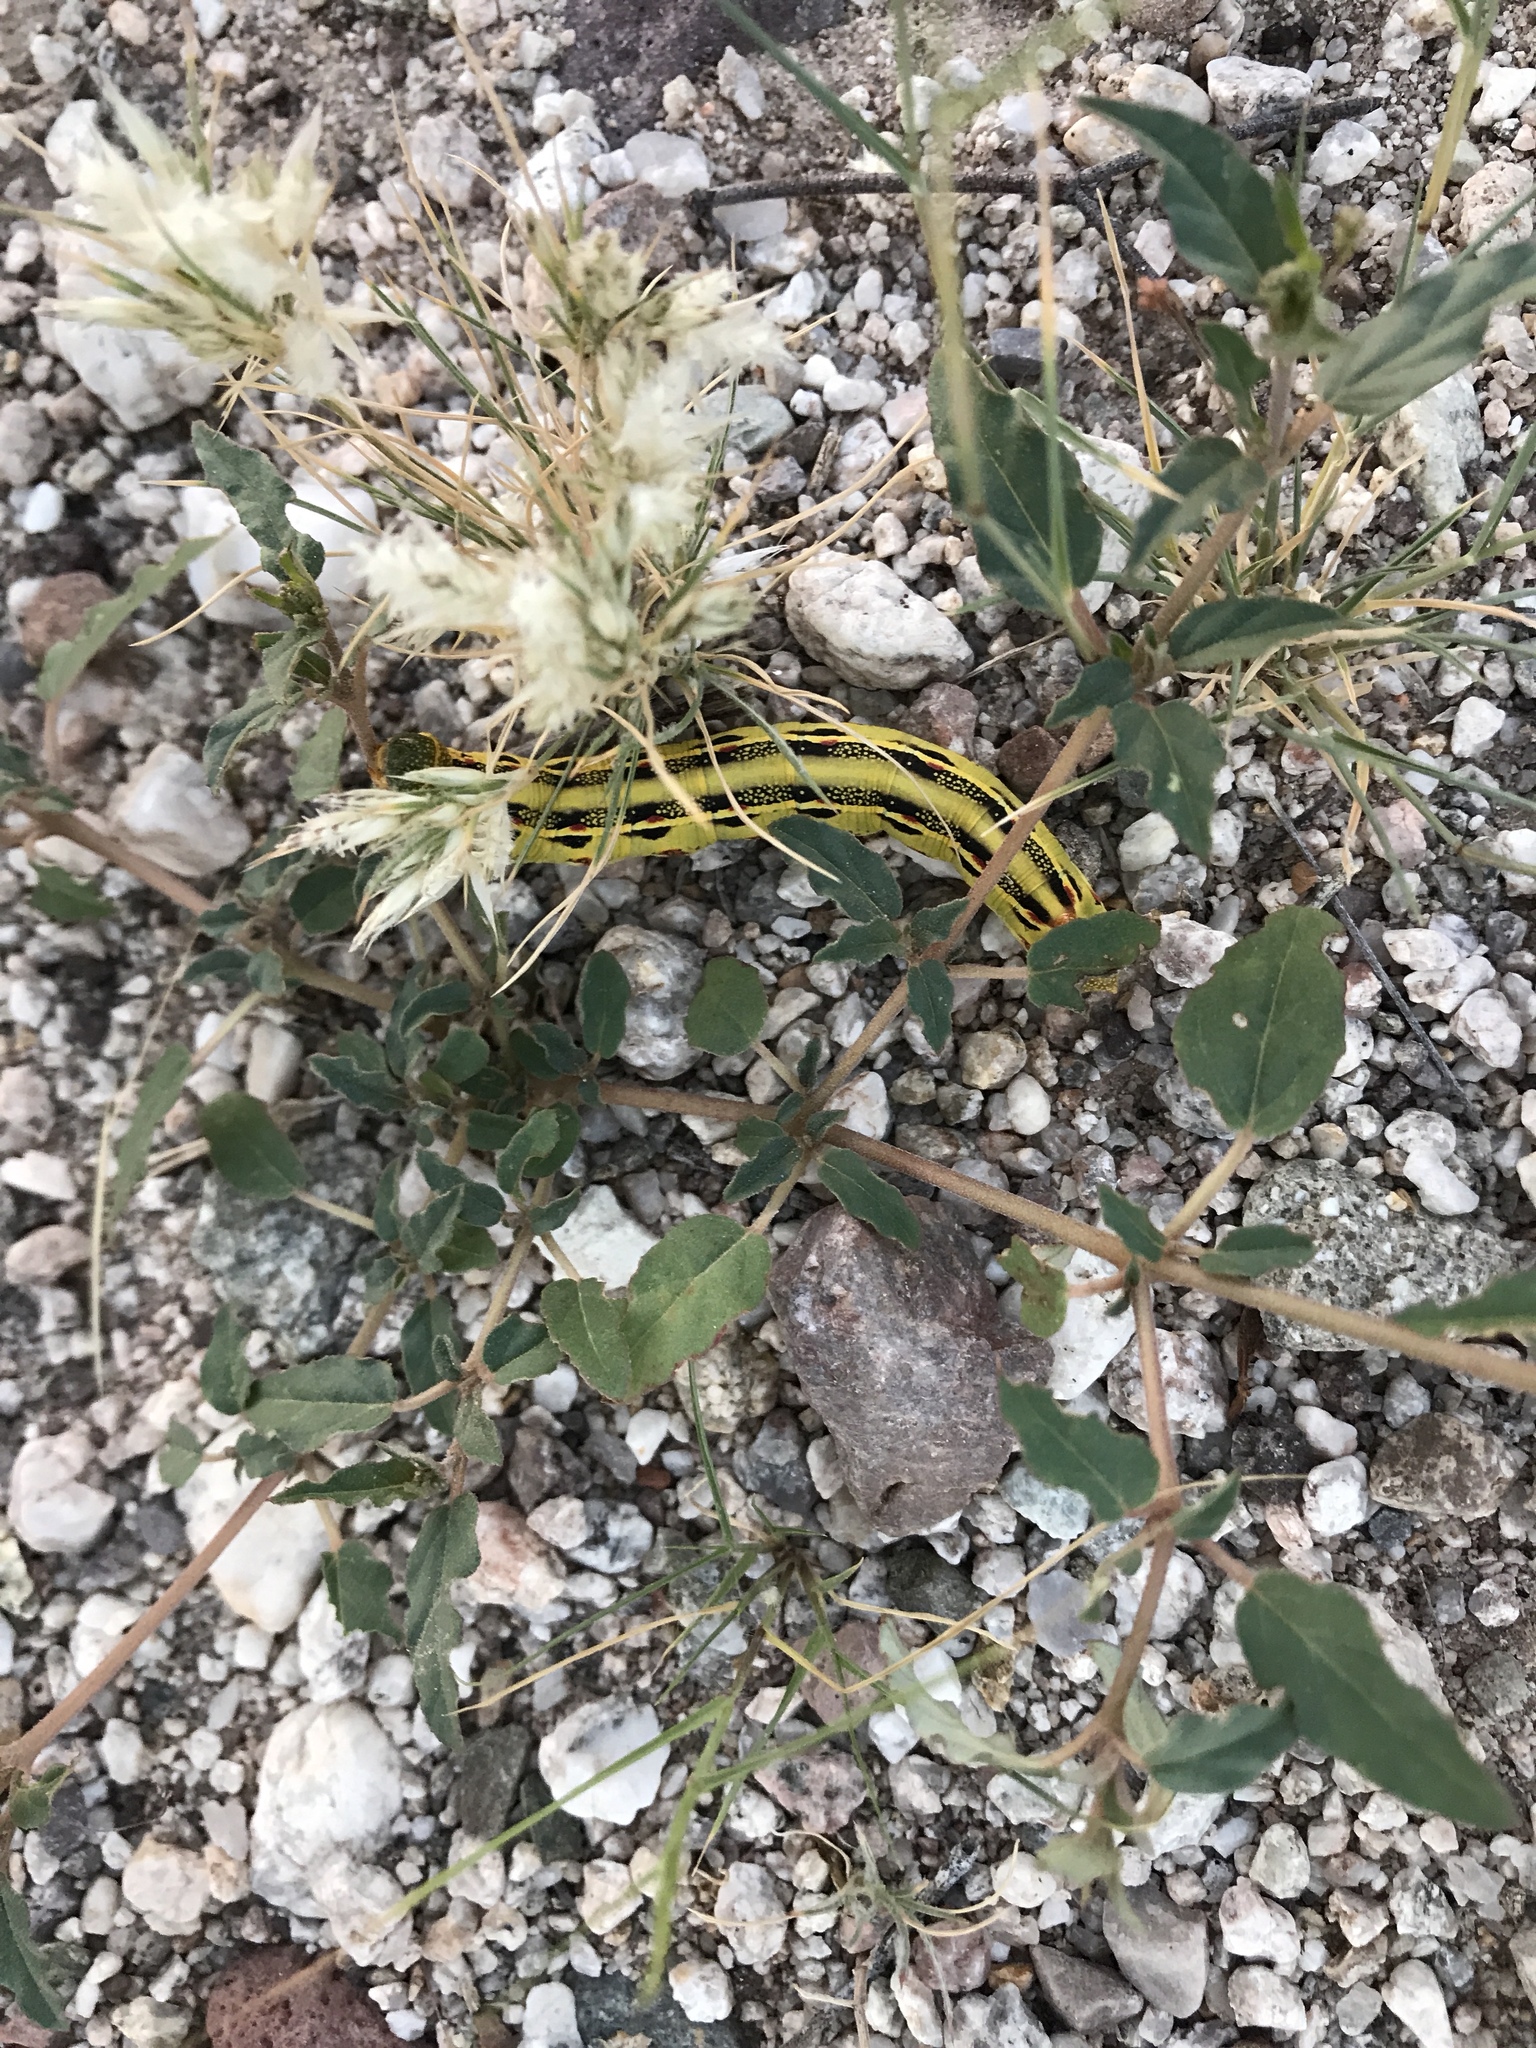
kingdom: Animalia
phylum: Arthropoda
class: Insecta
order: Lepidoptera
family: Sphingidae
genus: Hyles
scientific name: Hyles lineata
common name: White-lined sphinx
